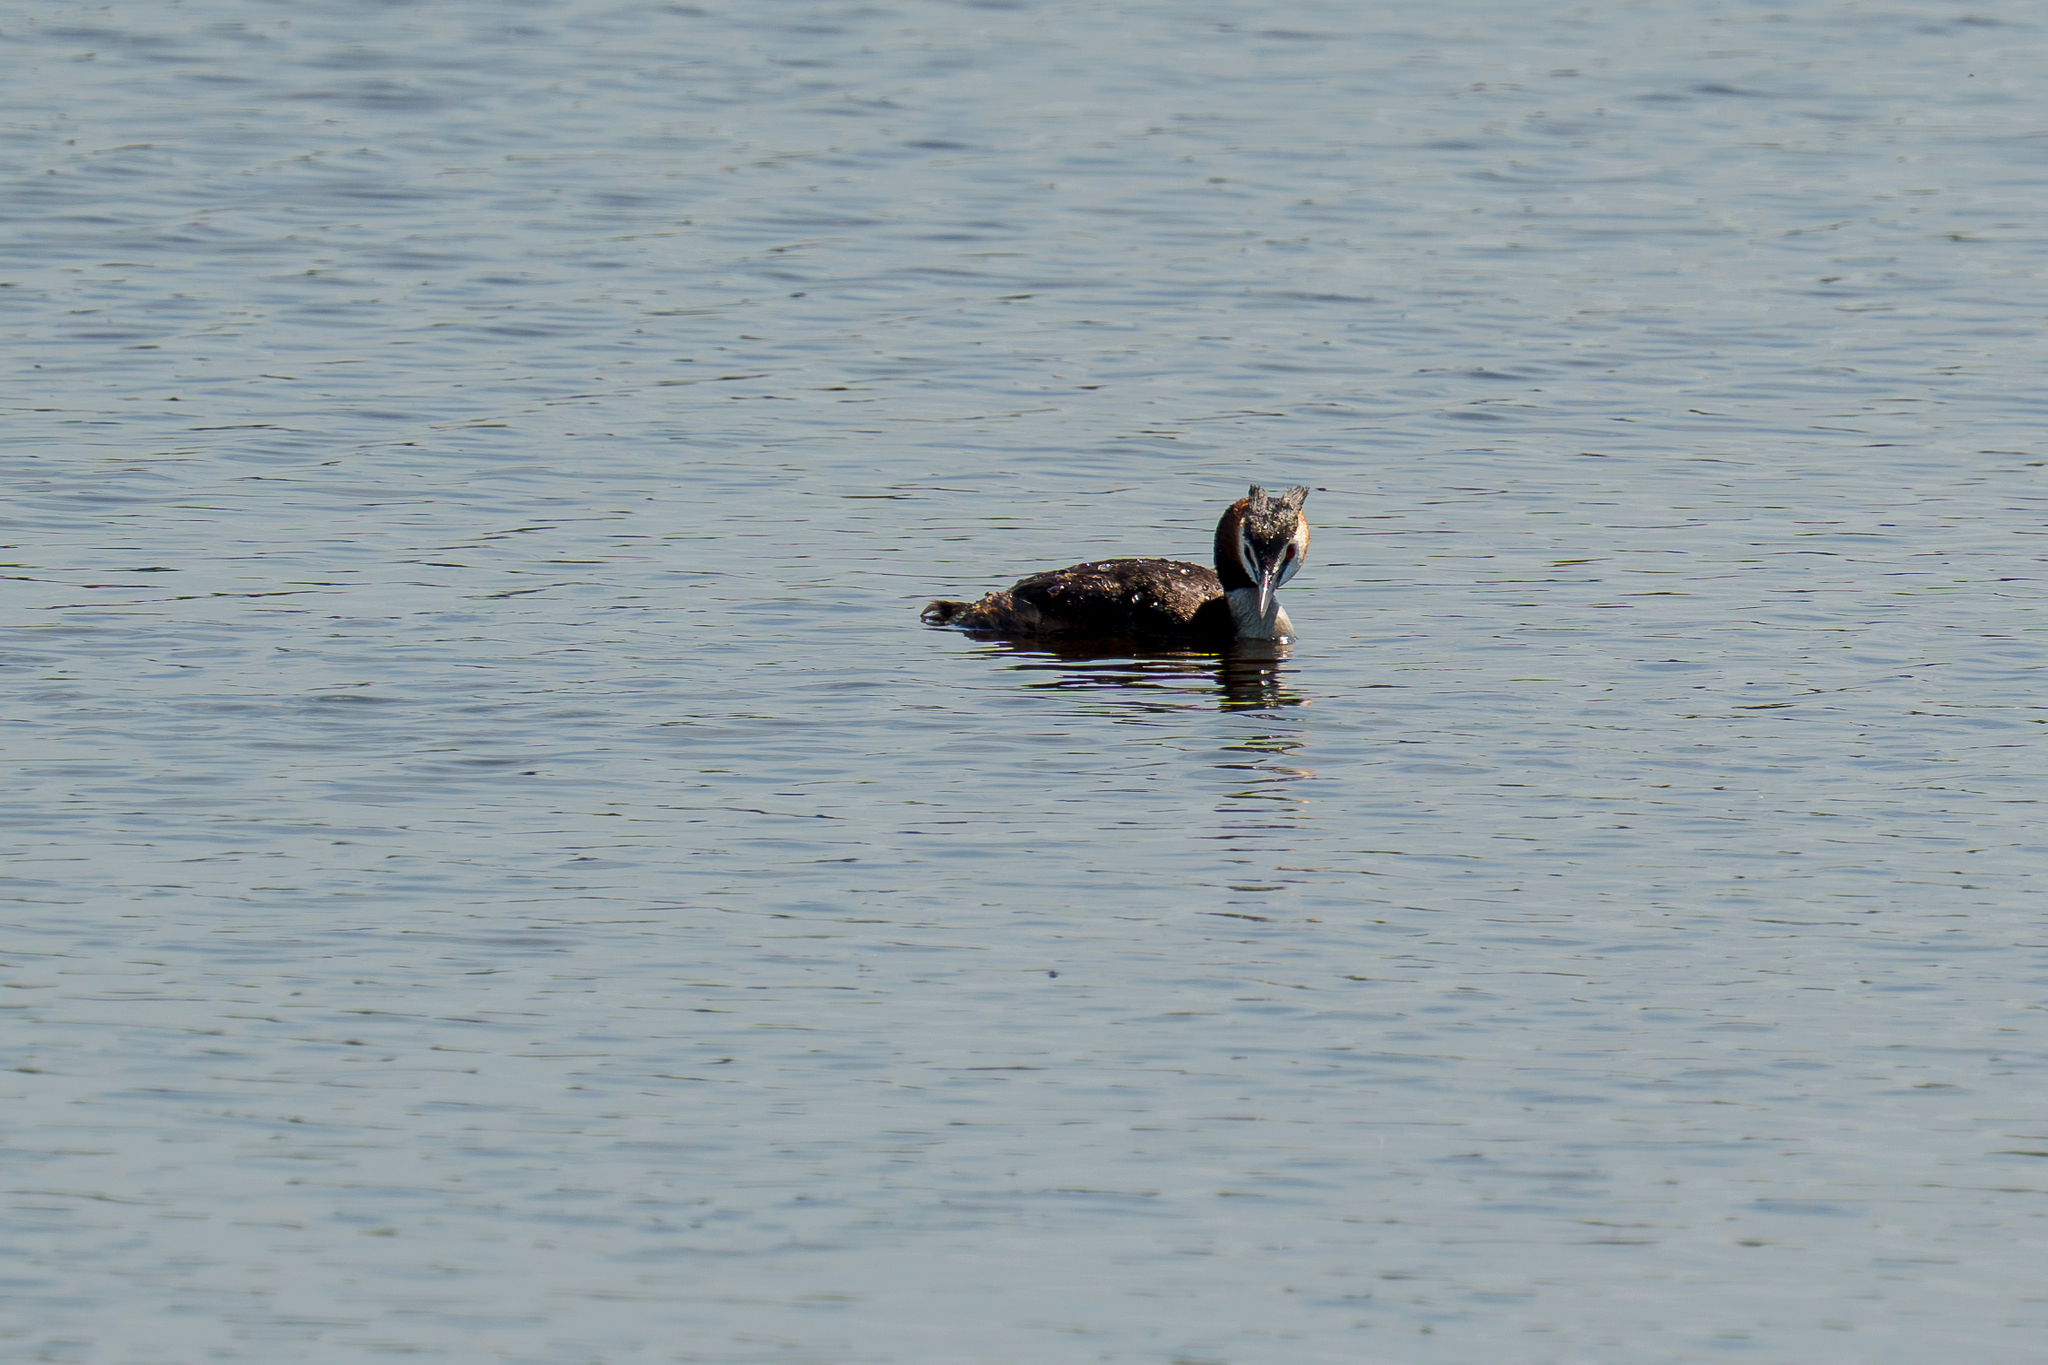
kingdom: Animalia
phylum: Chordata
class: Aves
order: Podicipediformes
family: Podicipedidae
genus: Podiceps
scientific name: Podiceps cristatus
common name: Great crested grebe
